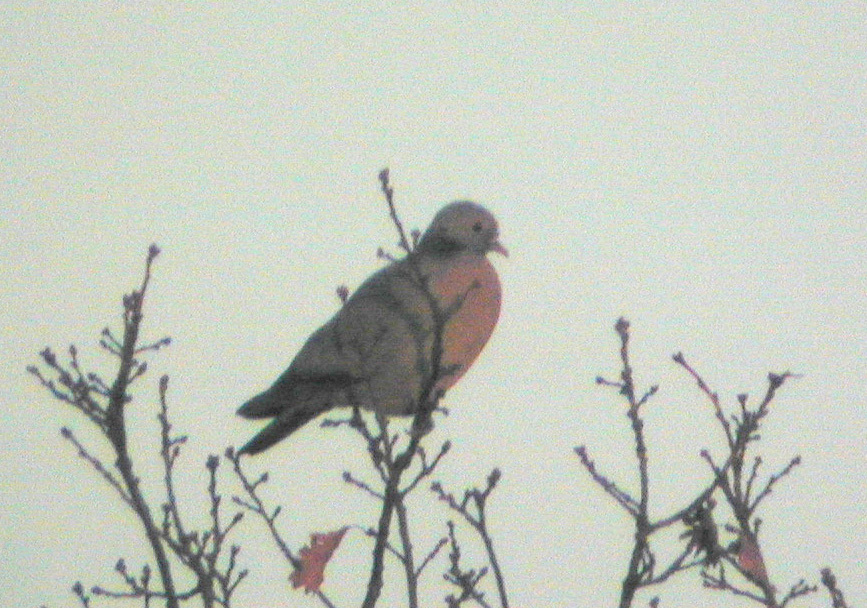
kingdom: Animalia
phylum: Chordata
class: Aves
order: Columbiformes
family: Columbidae
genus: Columba
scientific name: Columba oenas
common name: Stock dove
